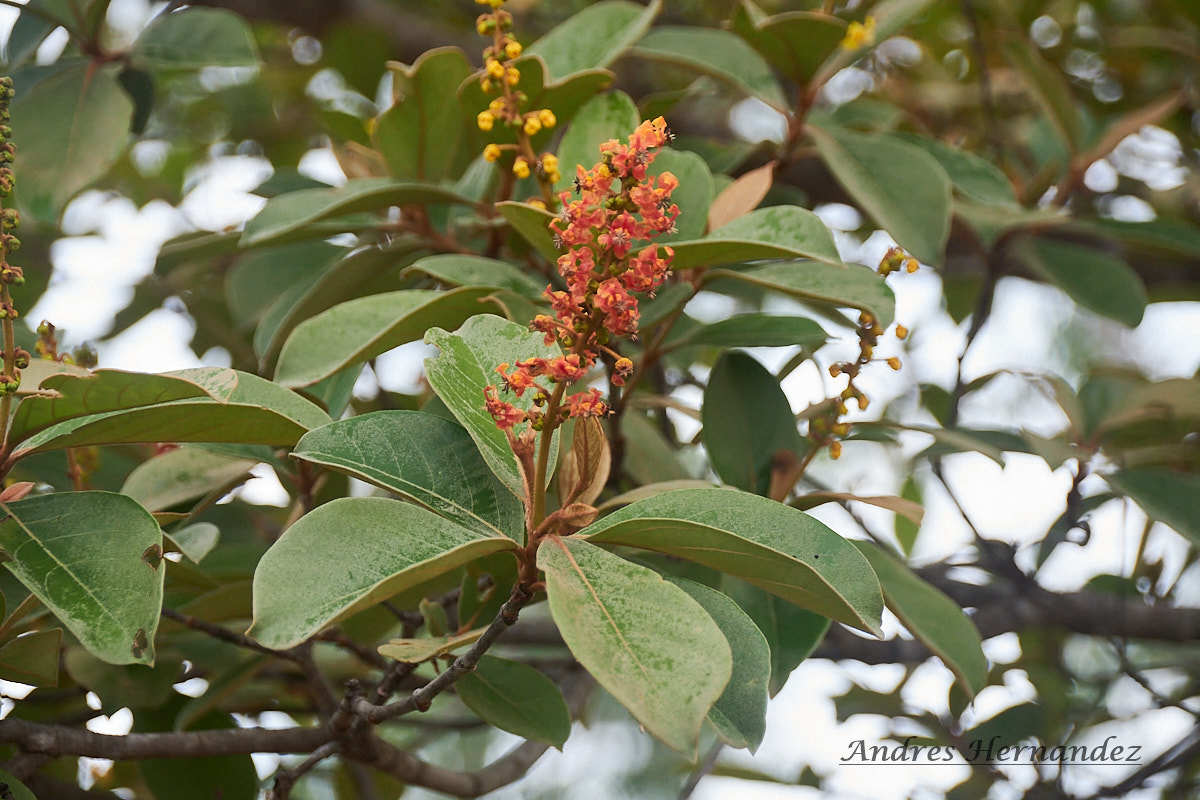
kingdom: Plantae
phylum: Tracheophyta
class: Magnoliopsida
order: Malpighiales
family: Malpighiaceae
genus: Byrsonima
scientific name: Byrsonima crassifolia
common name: Golden spoon
